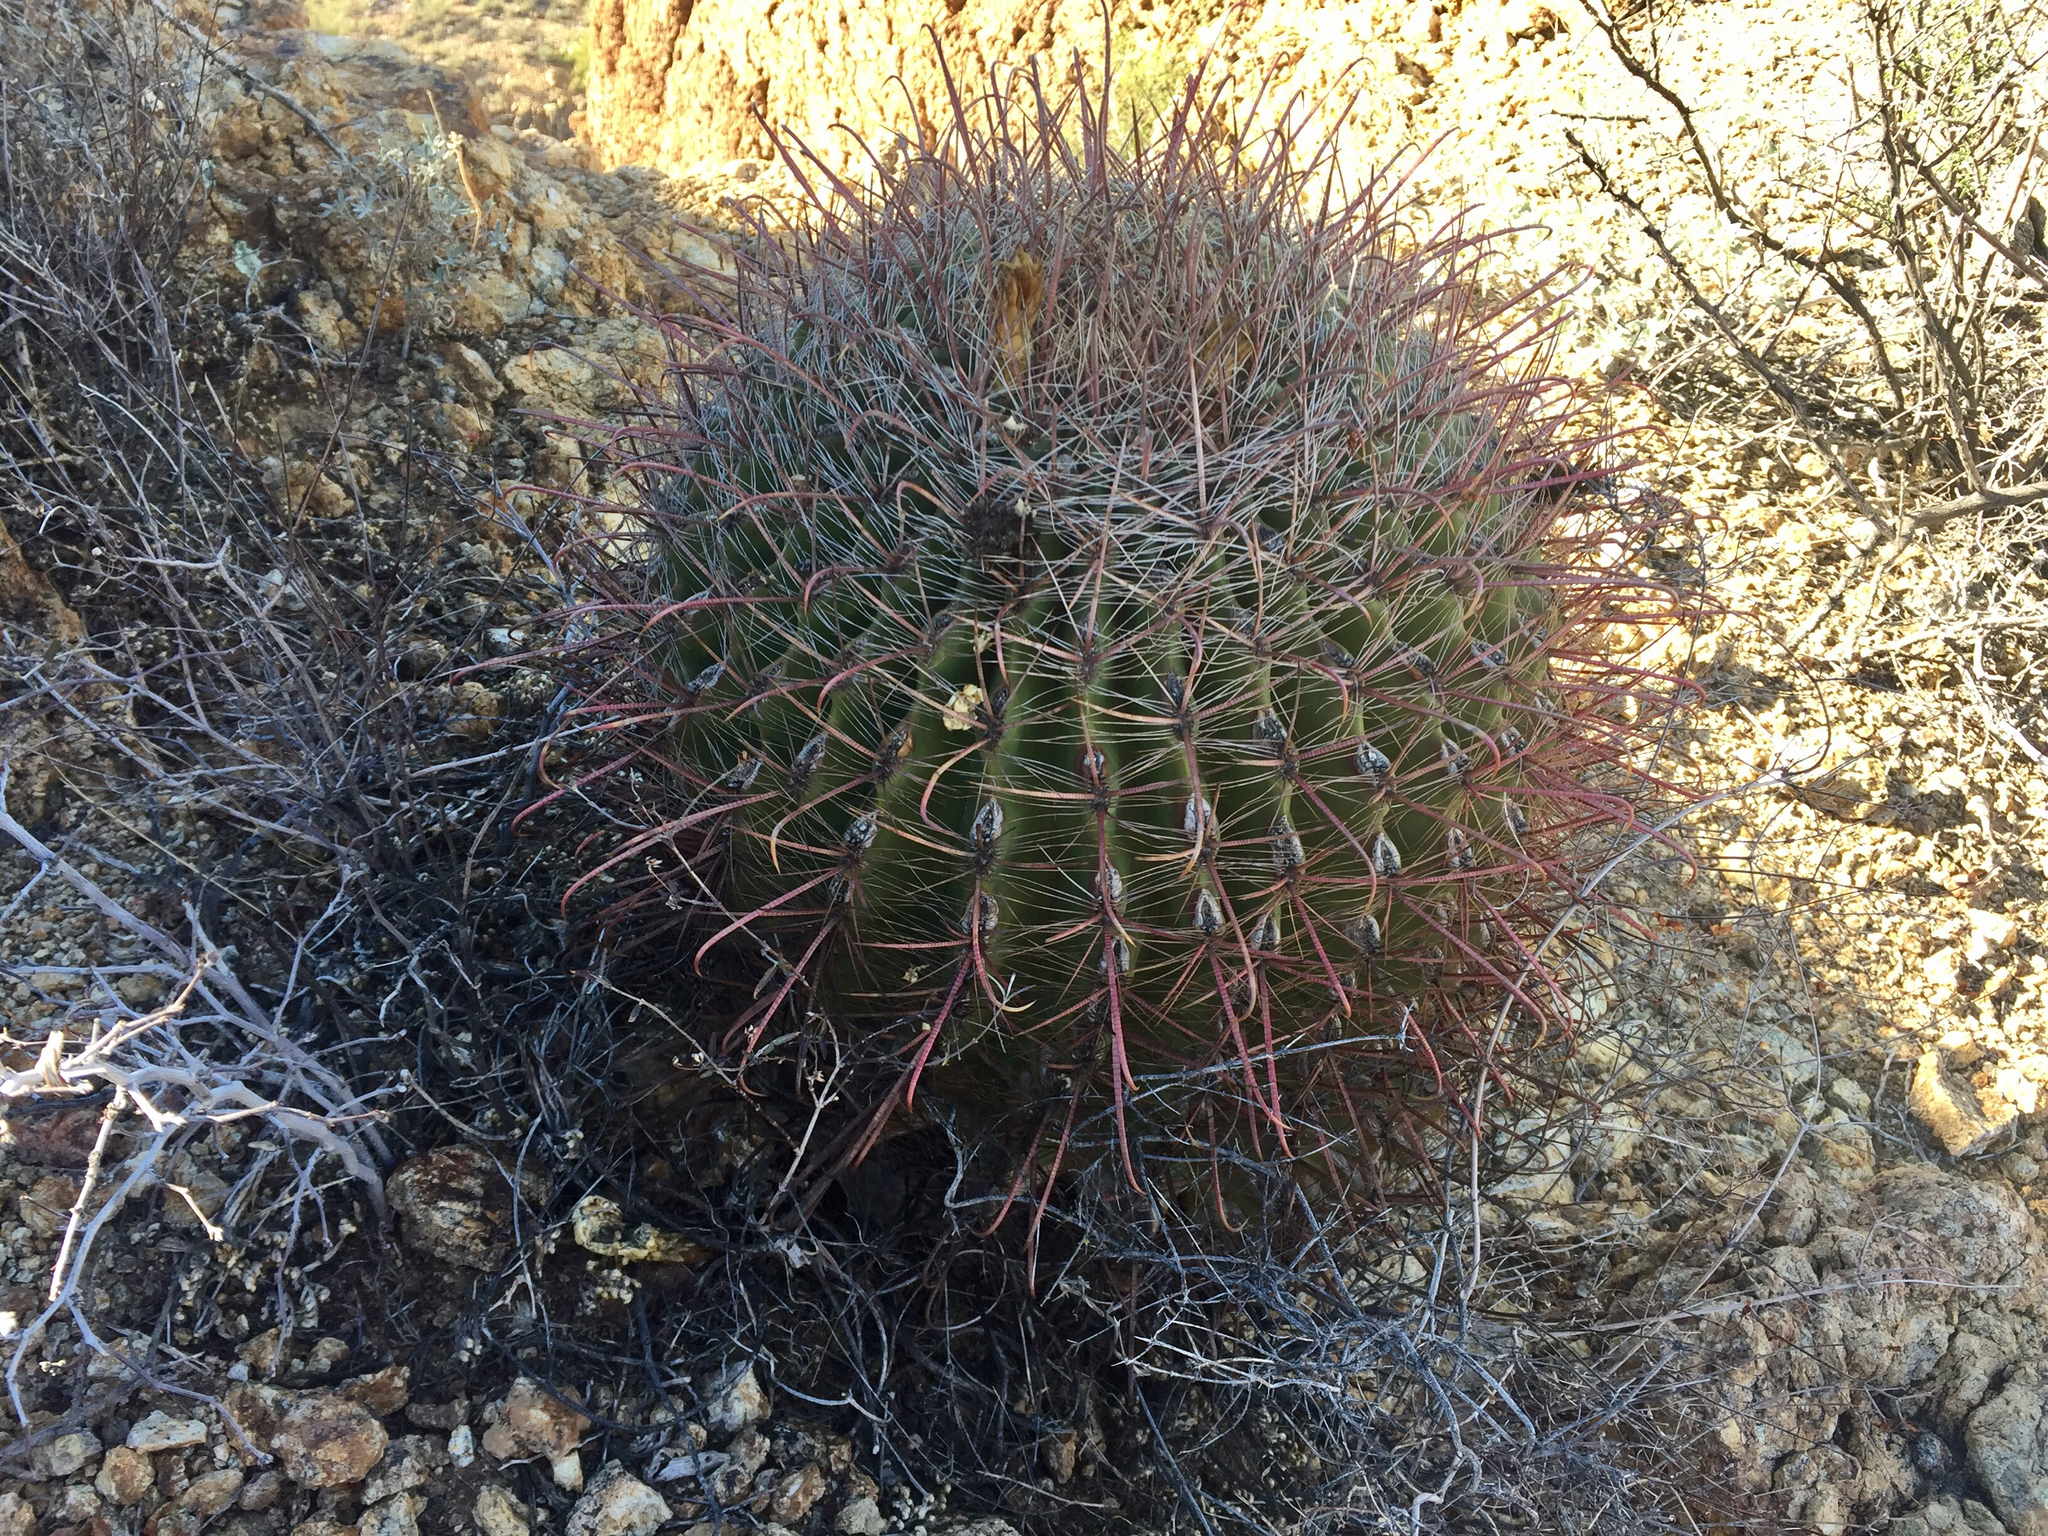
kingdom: Plantae
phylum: Tracheophyta
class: Magnoliopsida
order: Caryophyllales
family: Cactaceae
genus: Ferocactus
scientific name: Ferocactus wislizeni
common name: Candy barrel cactus
